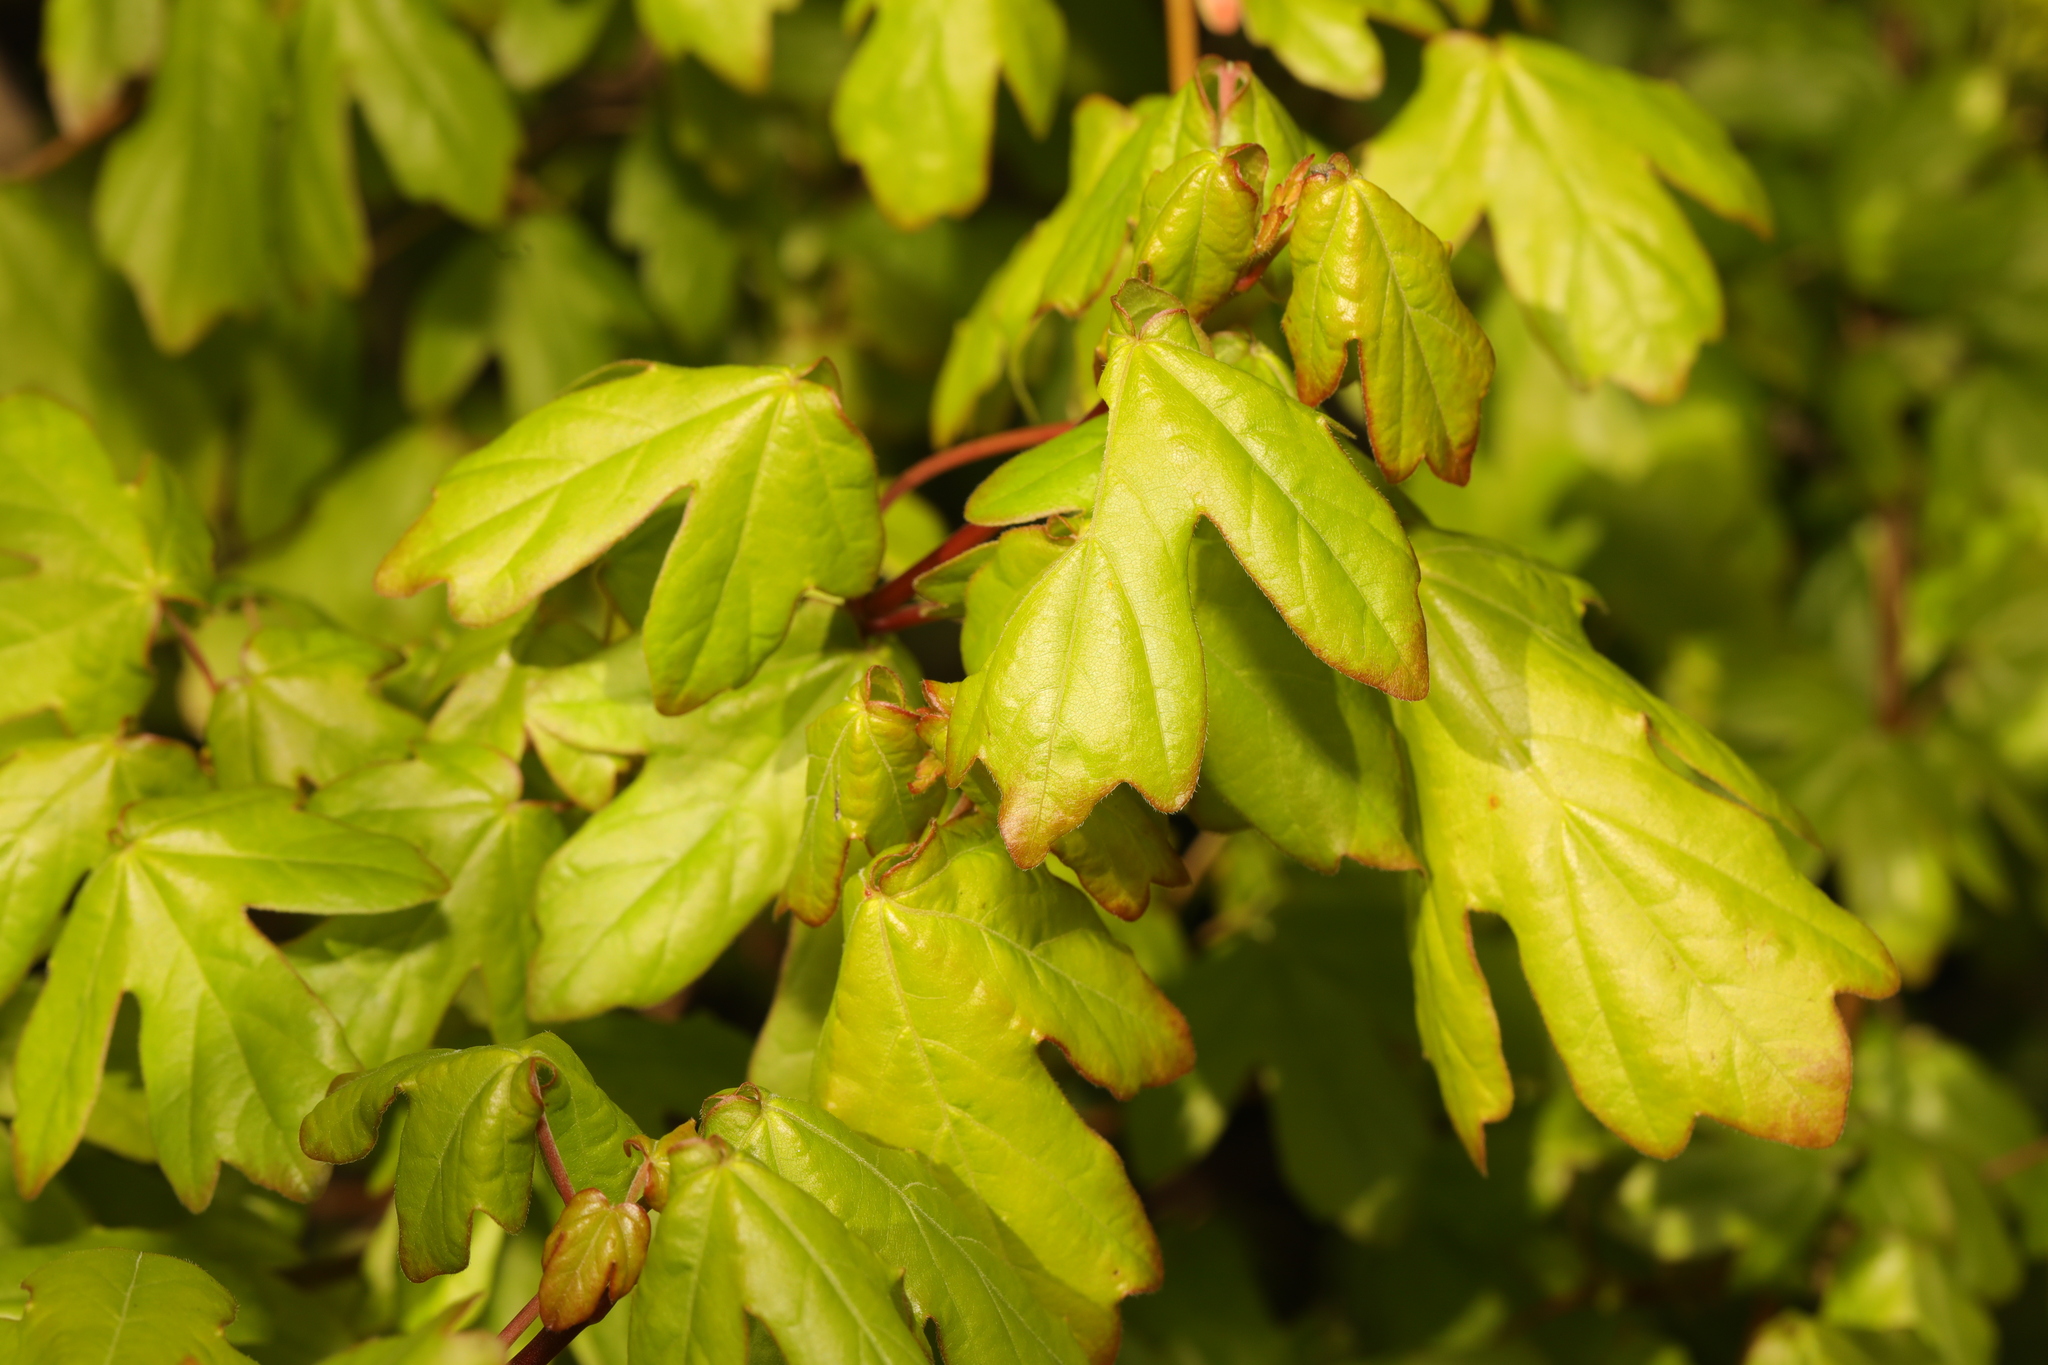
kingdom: Plantae
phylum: Tracheophyta
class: Magnoliopsida
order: Sapindales
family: Sapindaceae
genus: Acer
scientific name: Acer campestre
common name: Field maple
